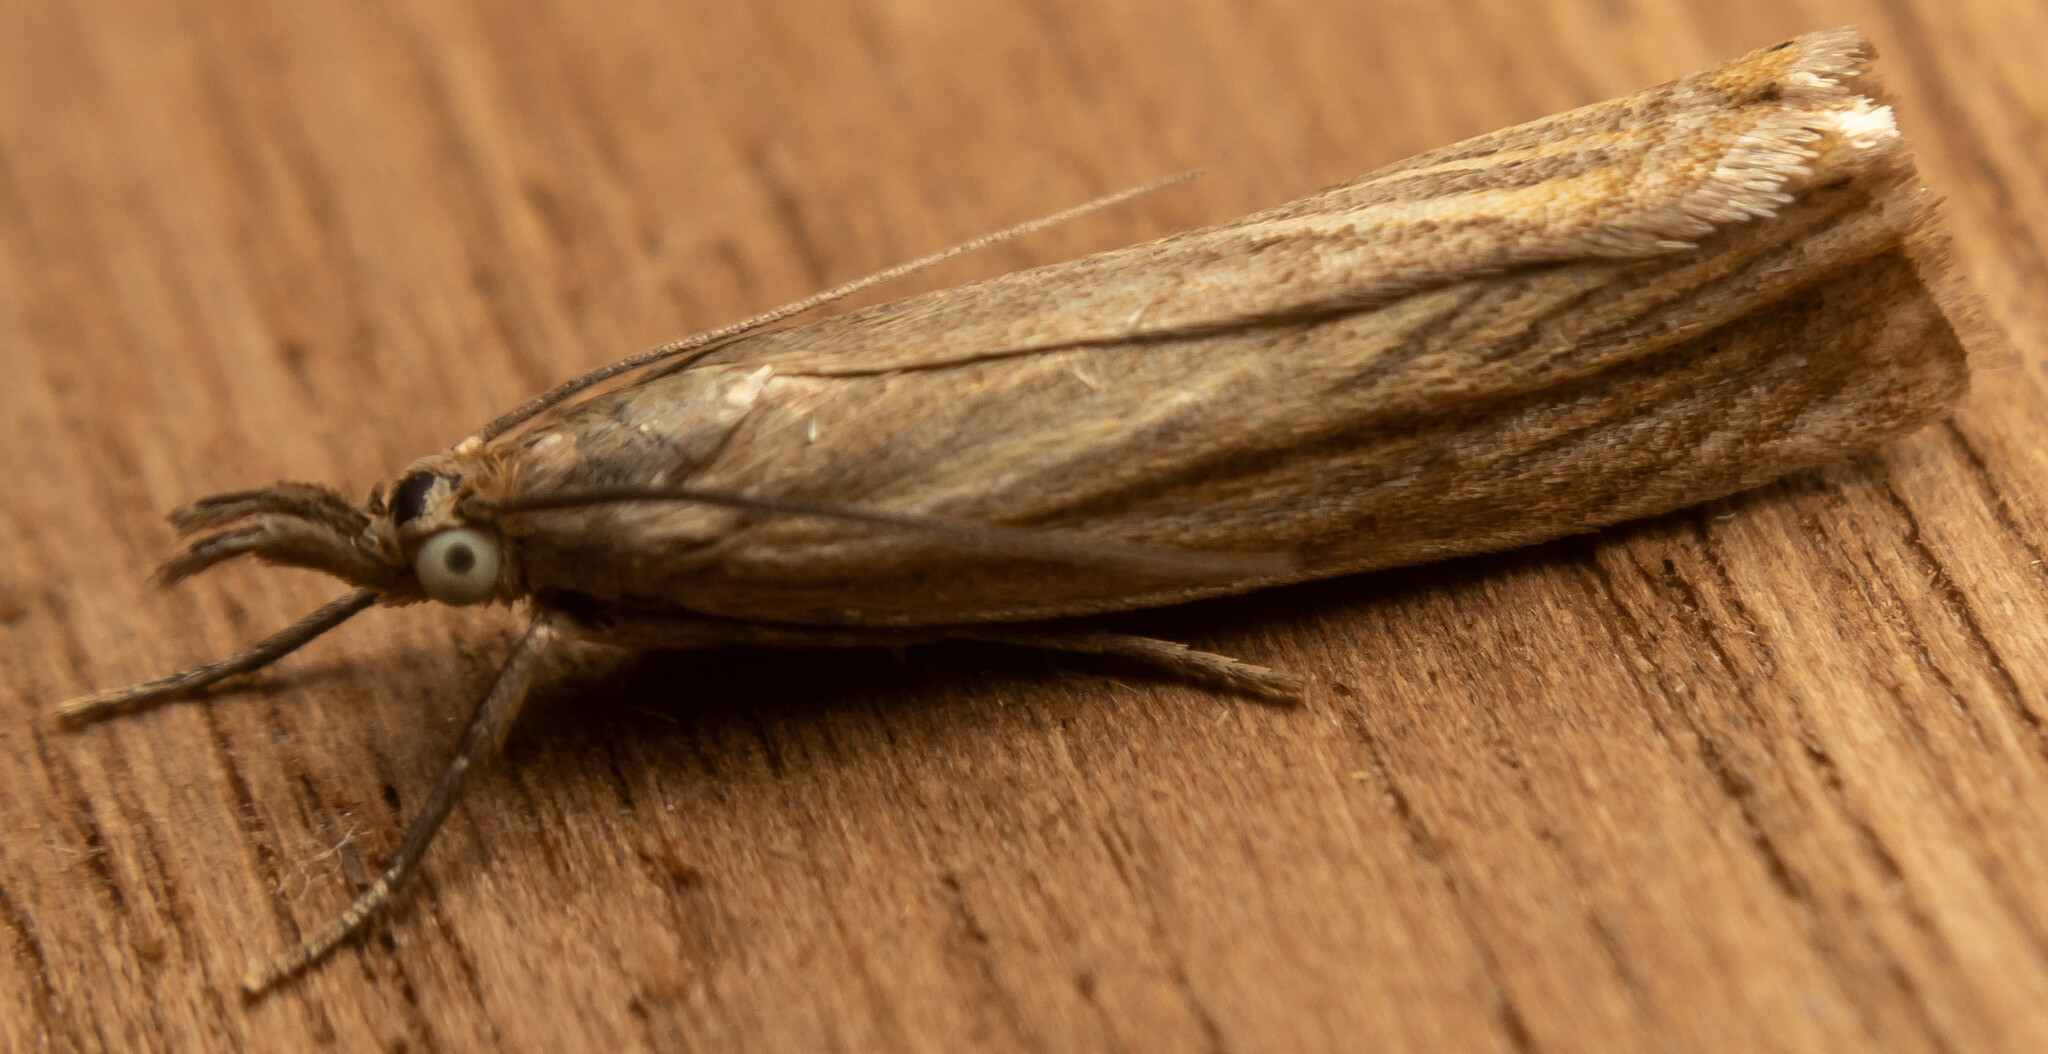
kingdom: Animalia
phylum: Arthropoda
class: Insecta
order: Lepidoptera
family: Crambidae
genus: Chrysoteuchia
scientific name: Chrysoteuchia culmella
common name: Garden grass-veneer
